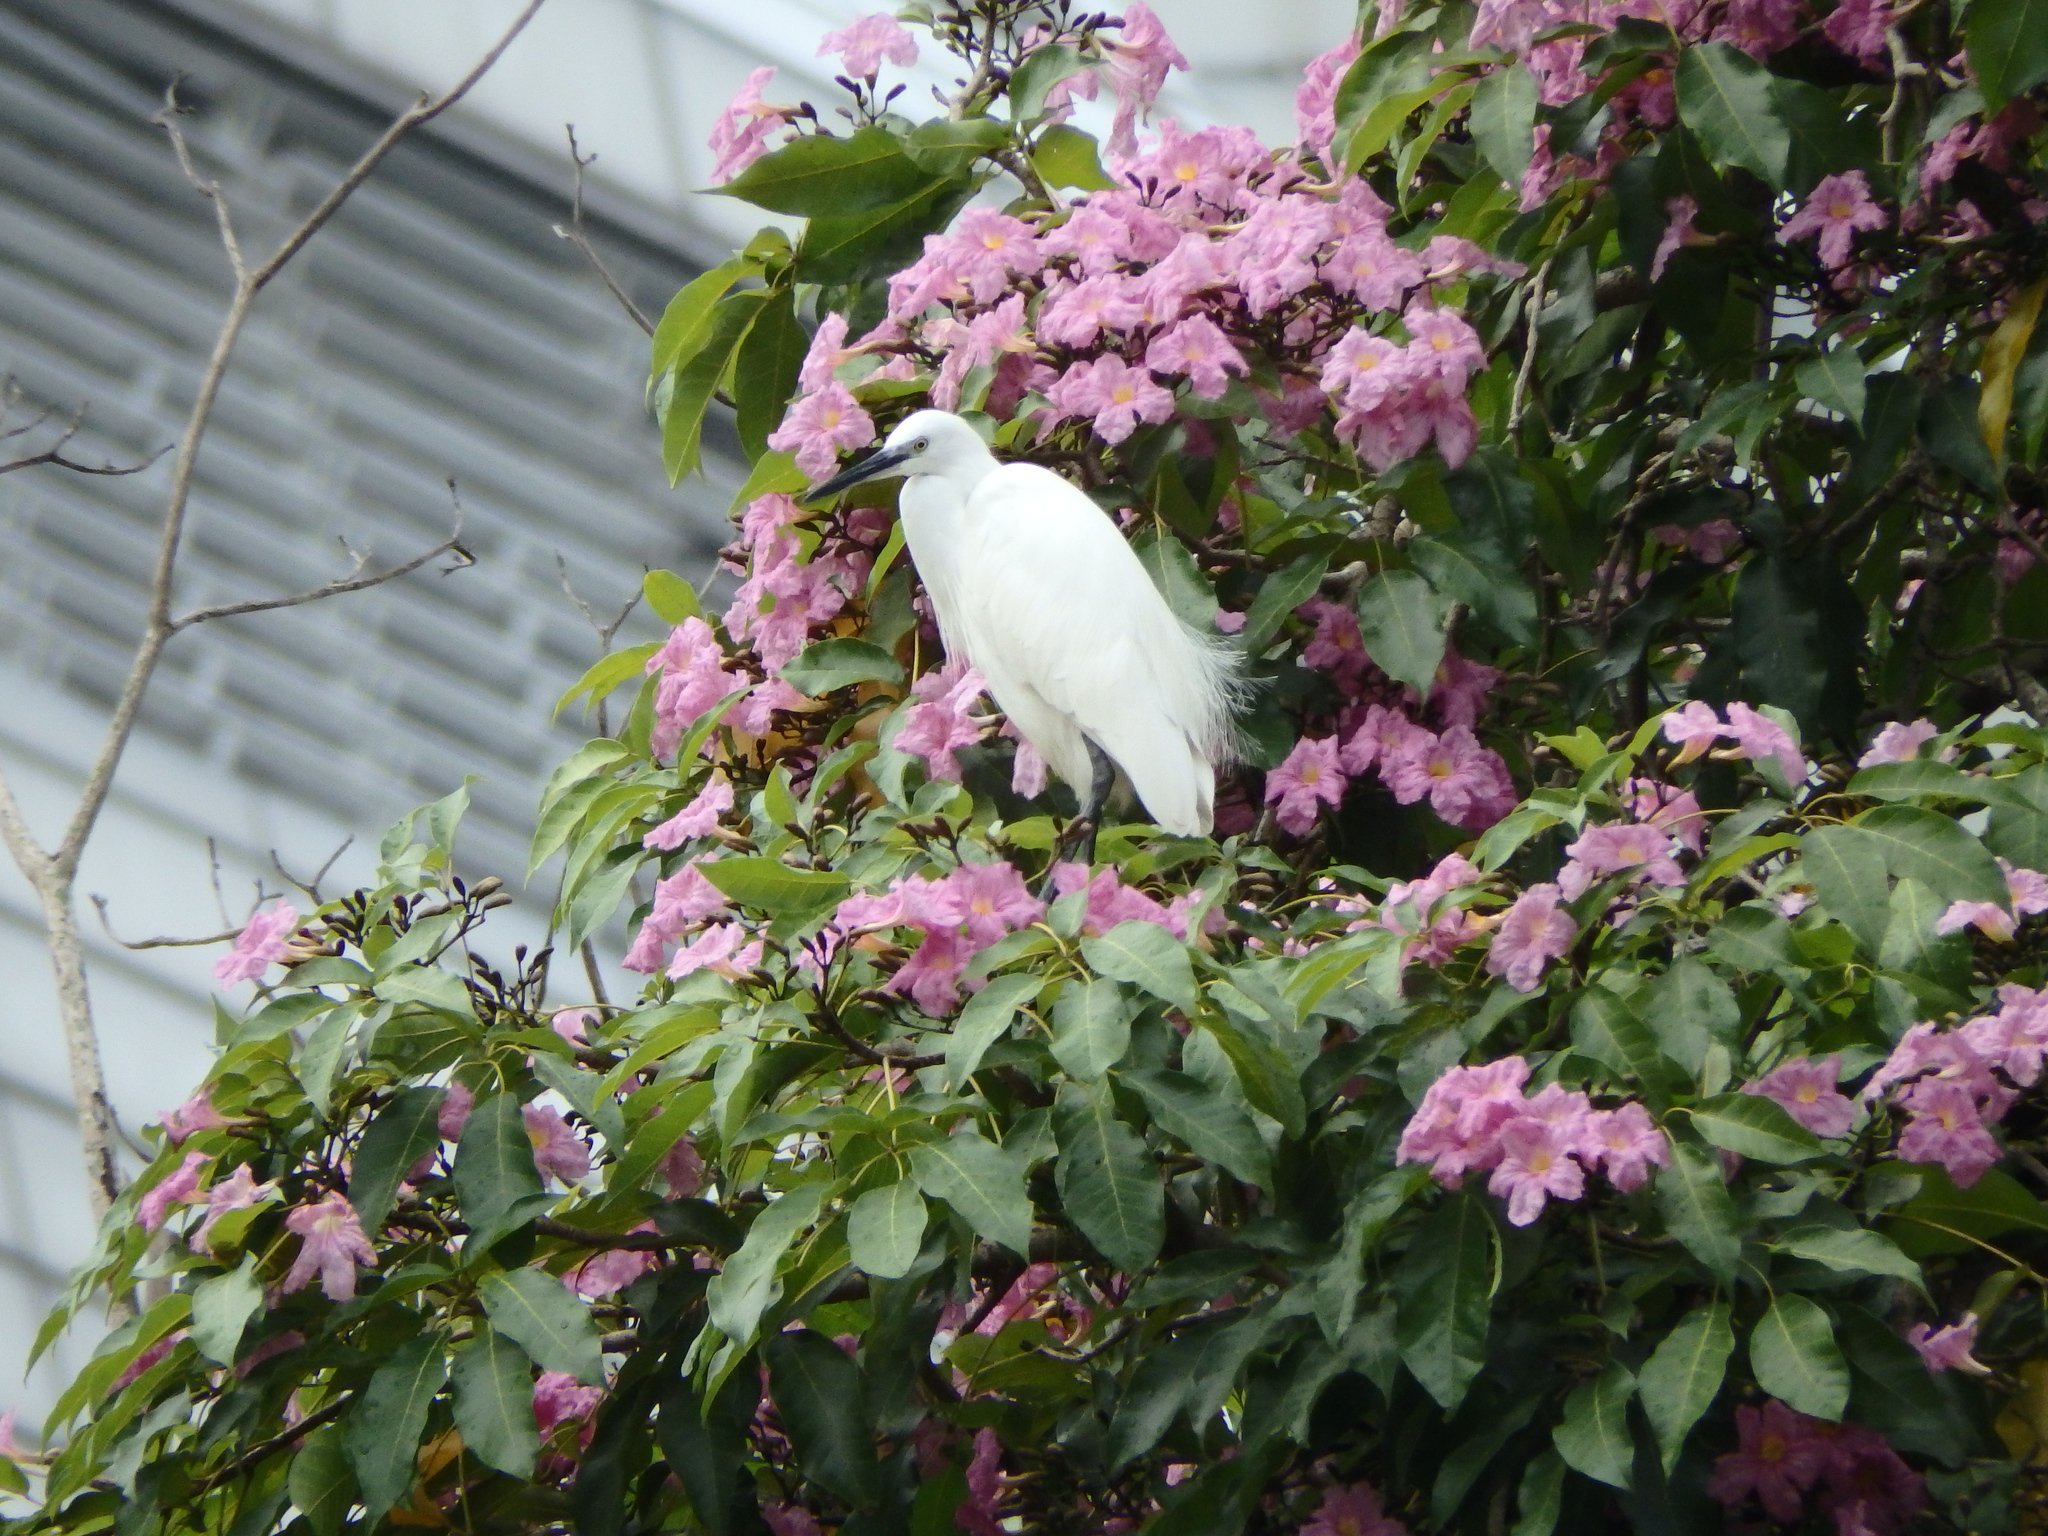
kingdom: Animalia
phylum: Chordata
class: Aves
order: Pelecaniformes
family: Ardeidae
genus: Egretta
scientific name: Egretta garzetta
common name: Little egret
